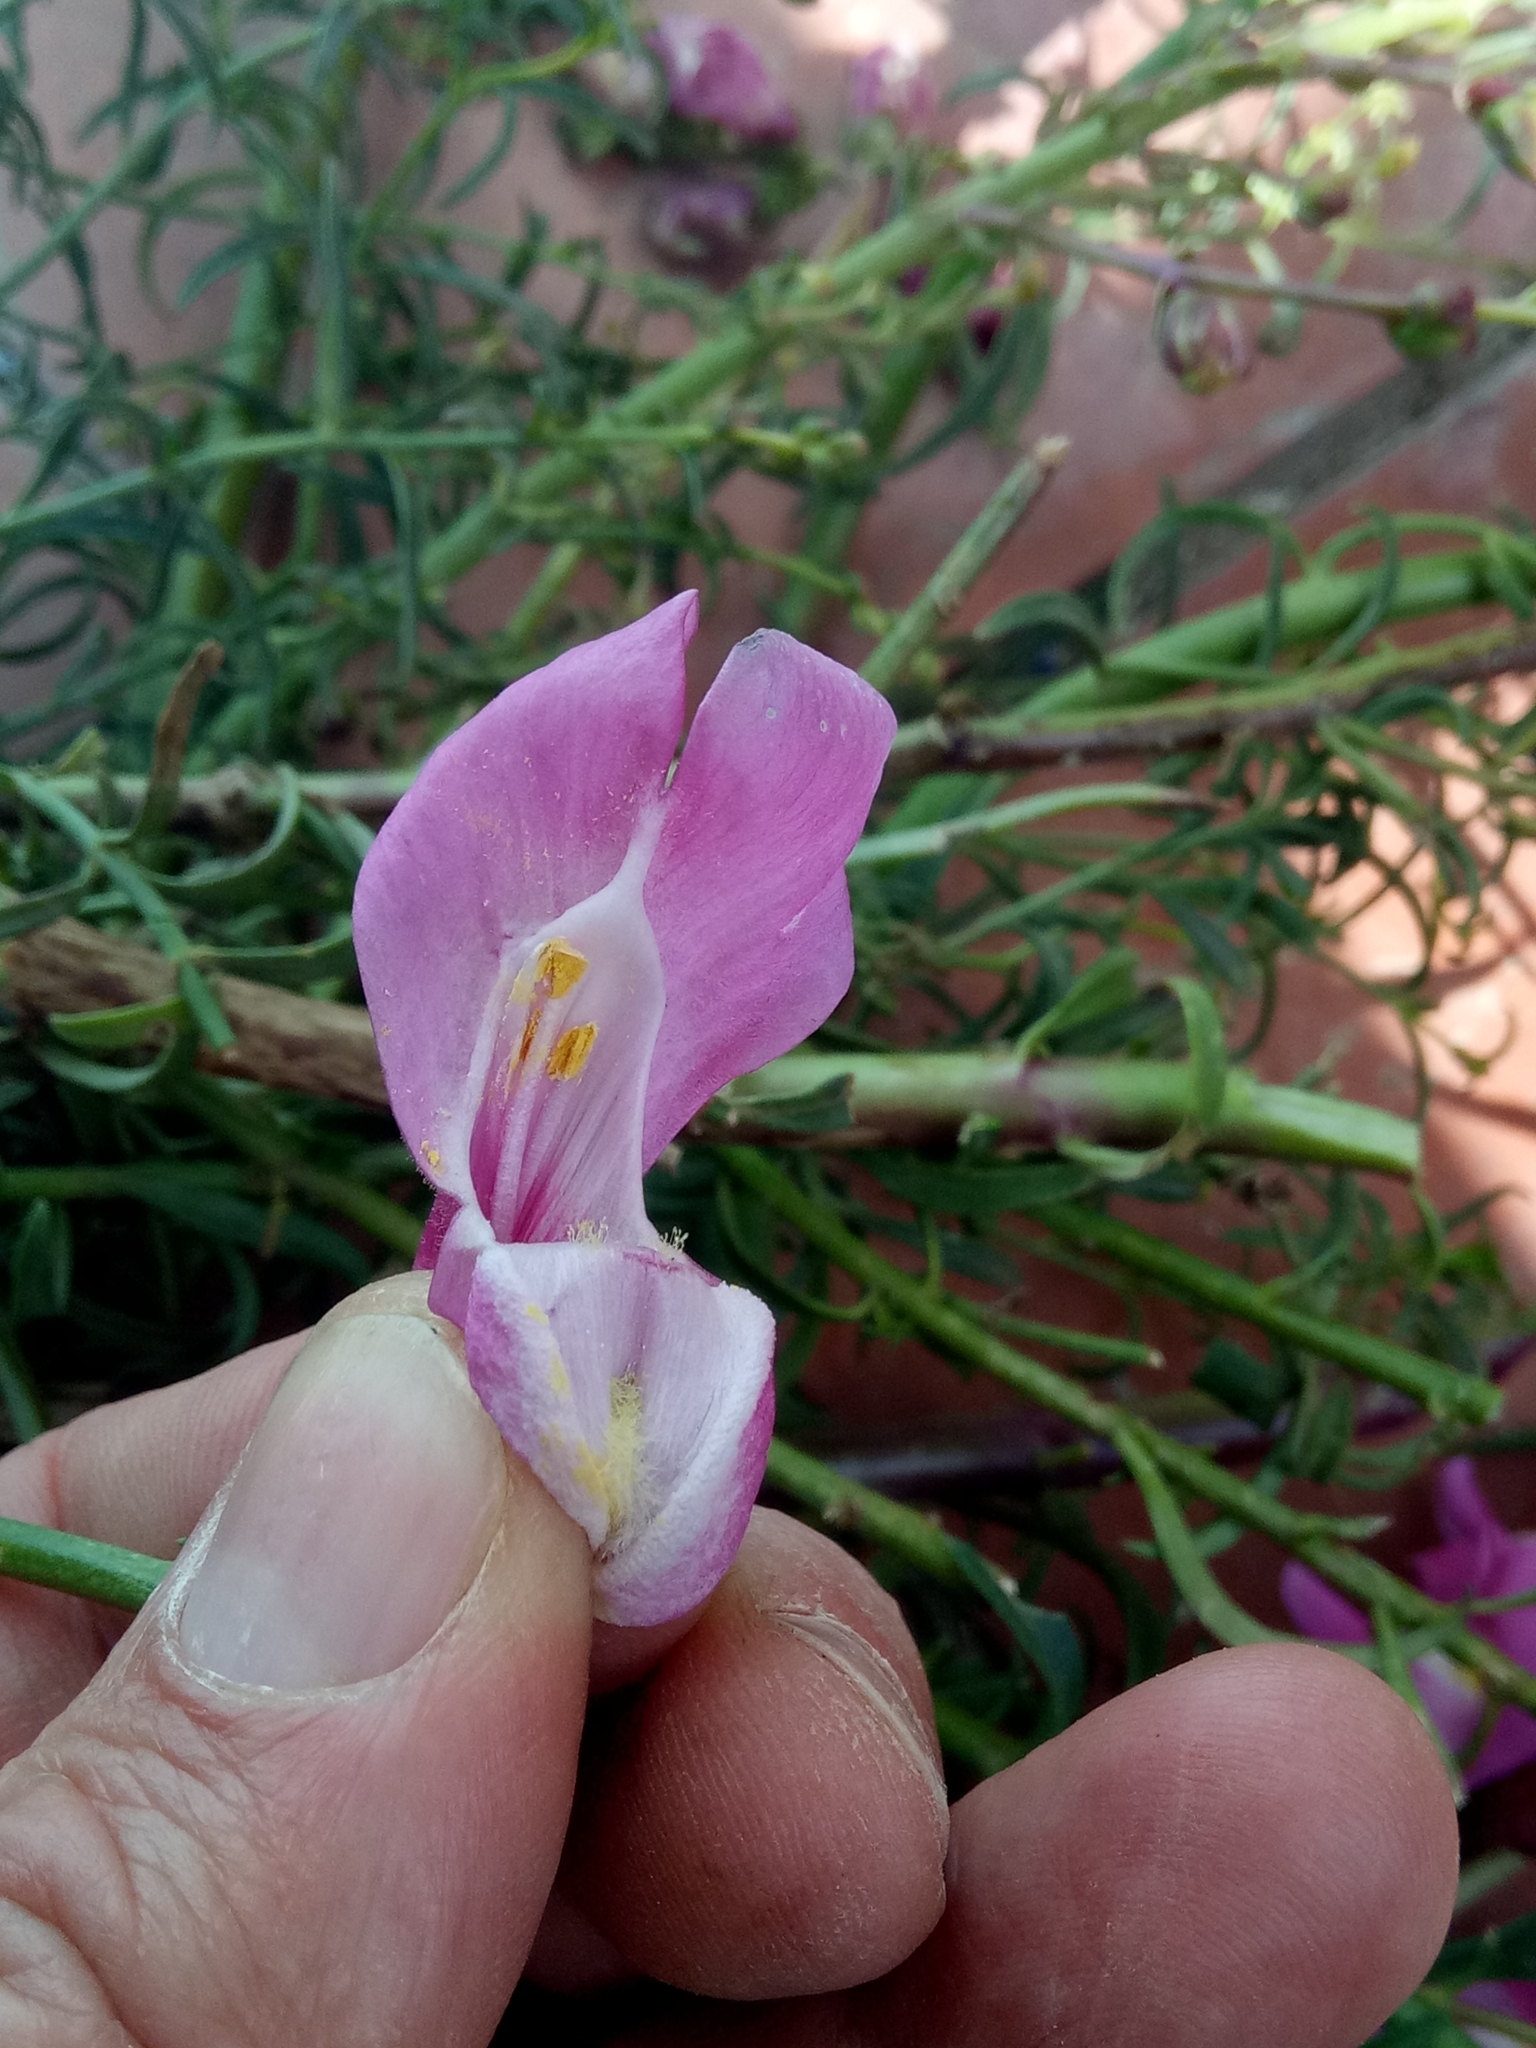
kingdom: Plantae
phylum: Tracheophyta
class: Magnoliopsida
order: Lamiales
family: Plantaginaceae
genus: Antirrhinum
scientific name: Antirrhinum tortuosum
